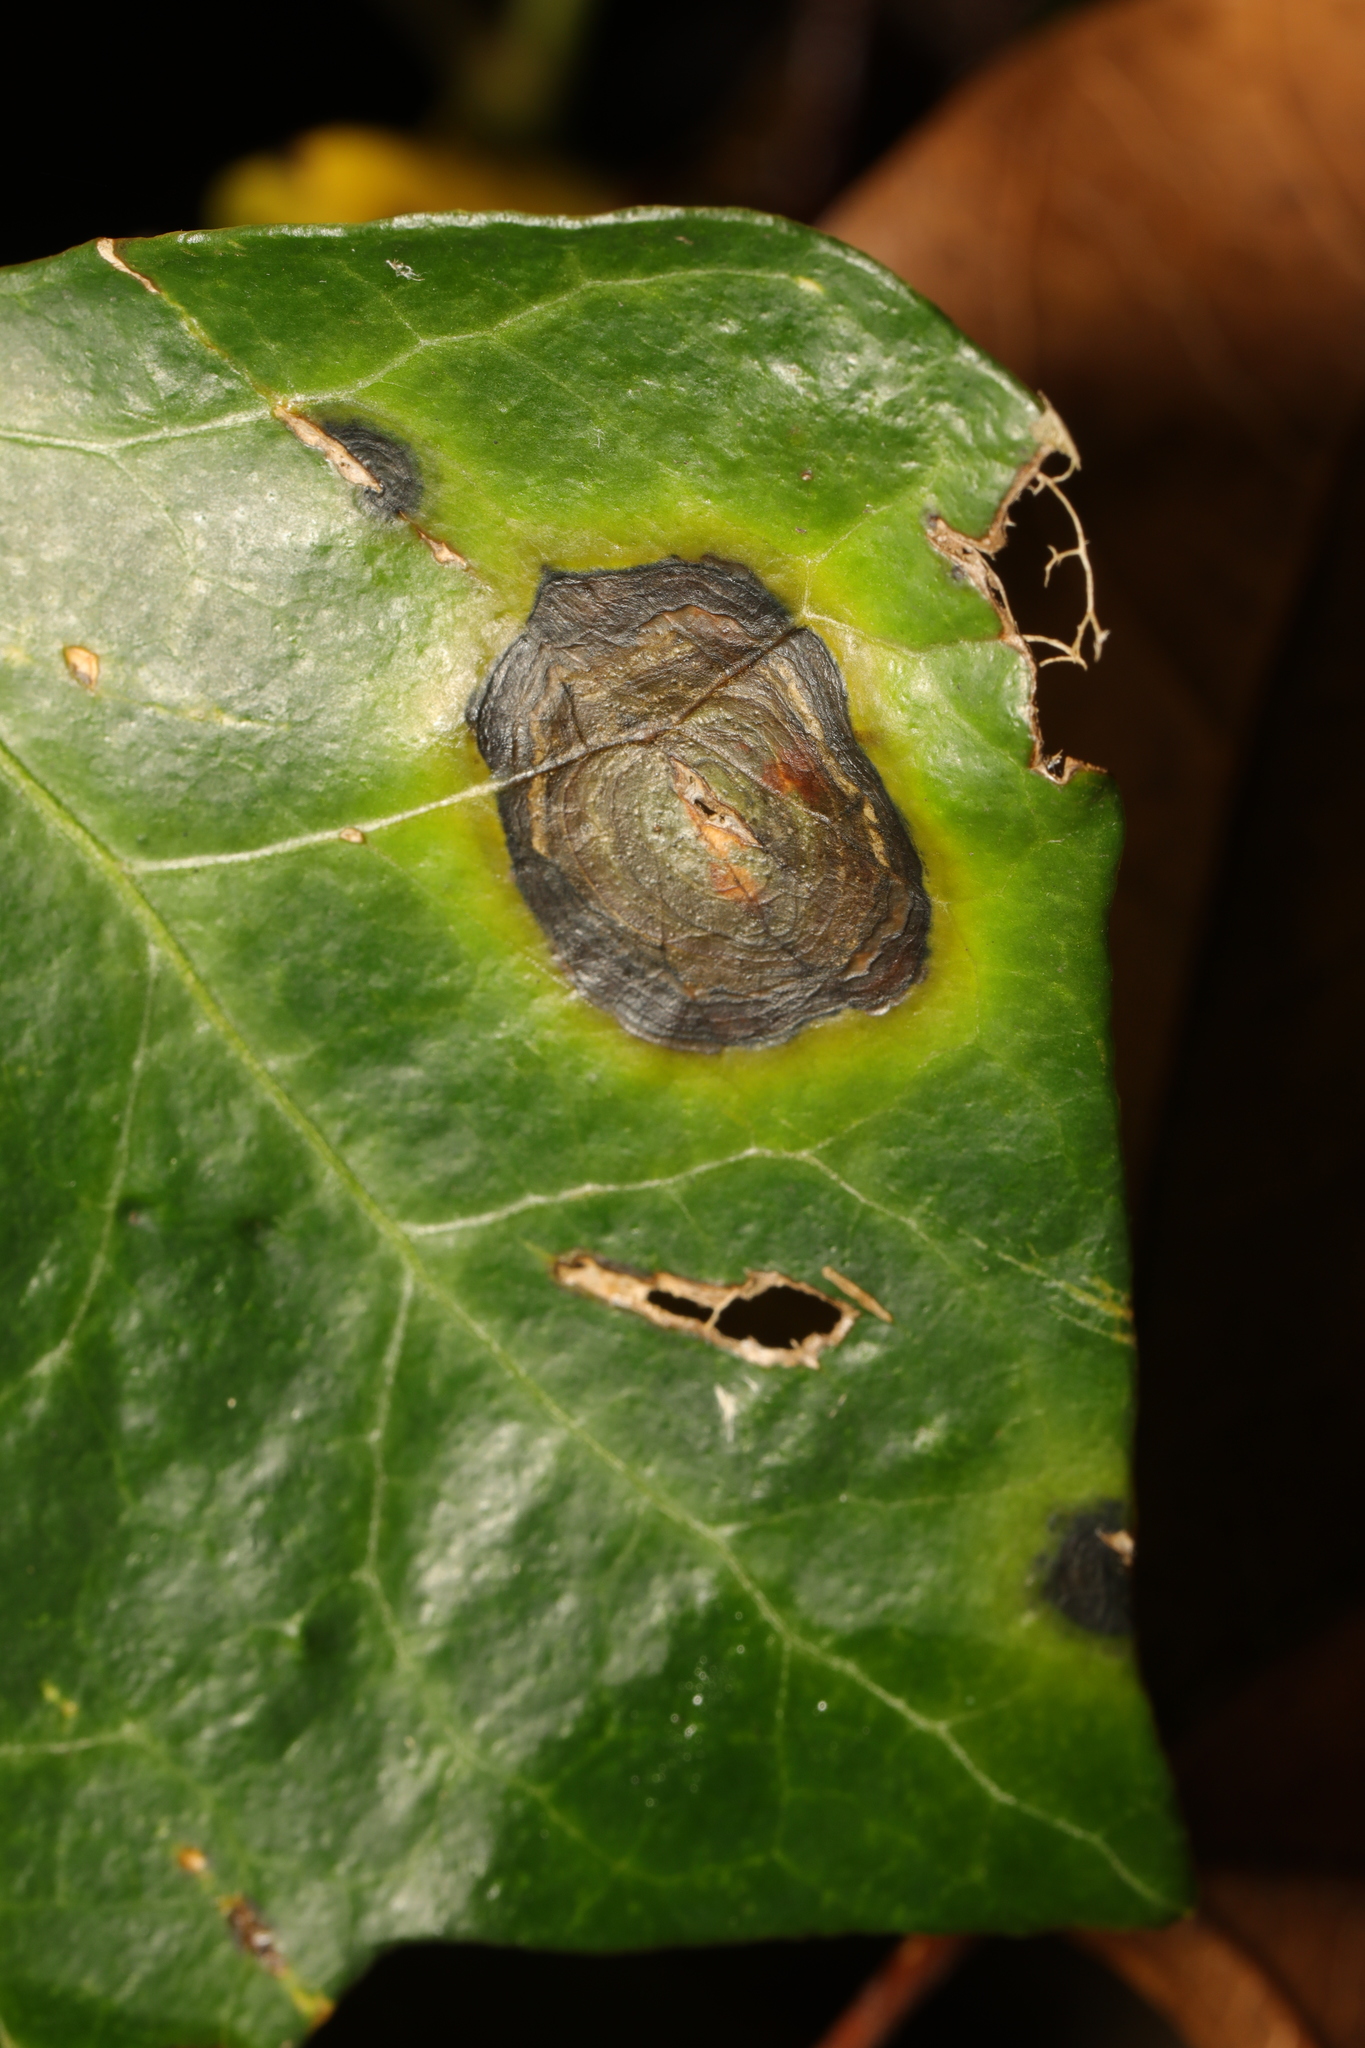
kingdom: Fungi
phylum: Ascomycota
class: Dothideomycetes
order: Pleosporales
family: Didymellaceae
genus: Boeremia
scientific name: Boeremia hedericola
